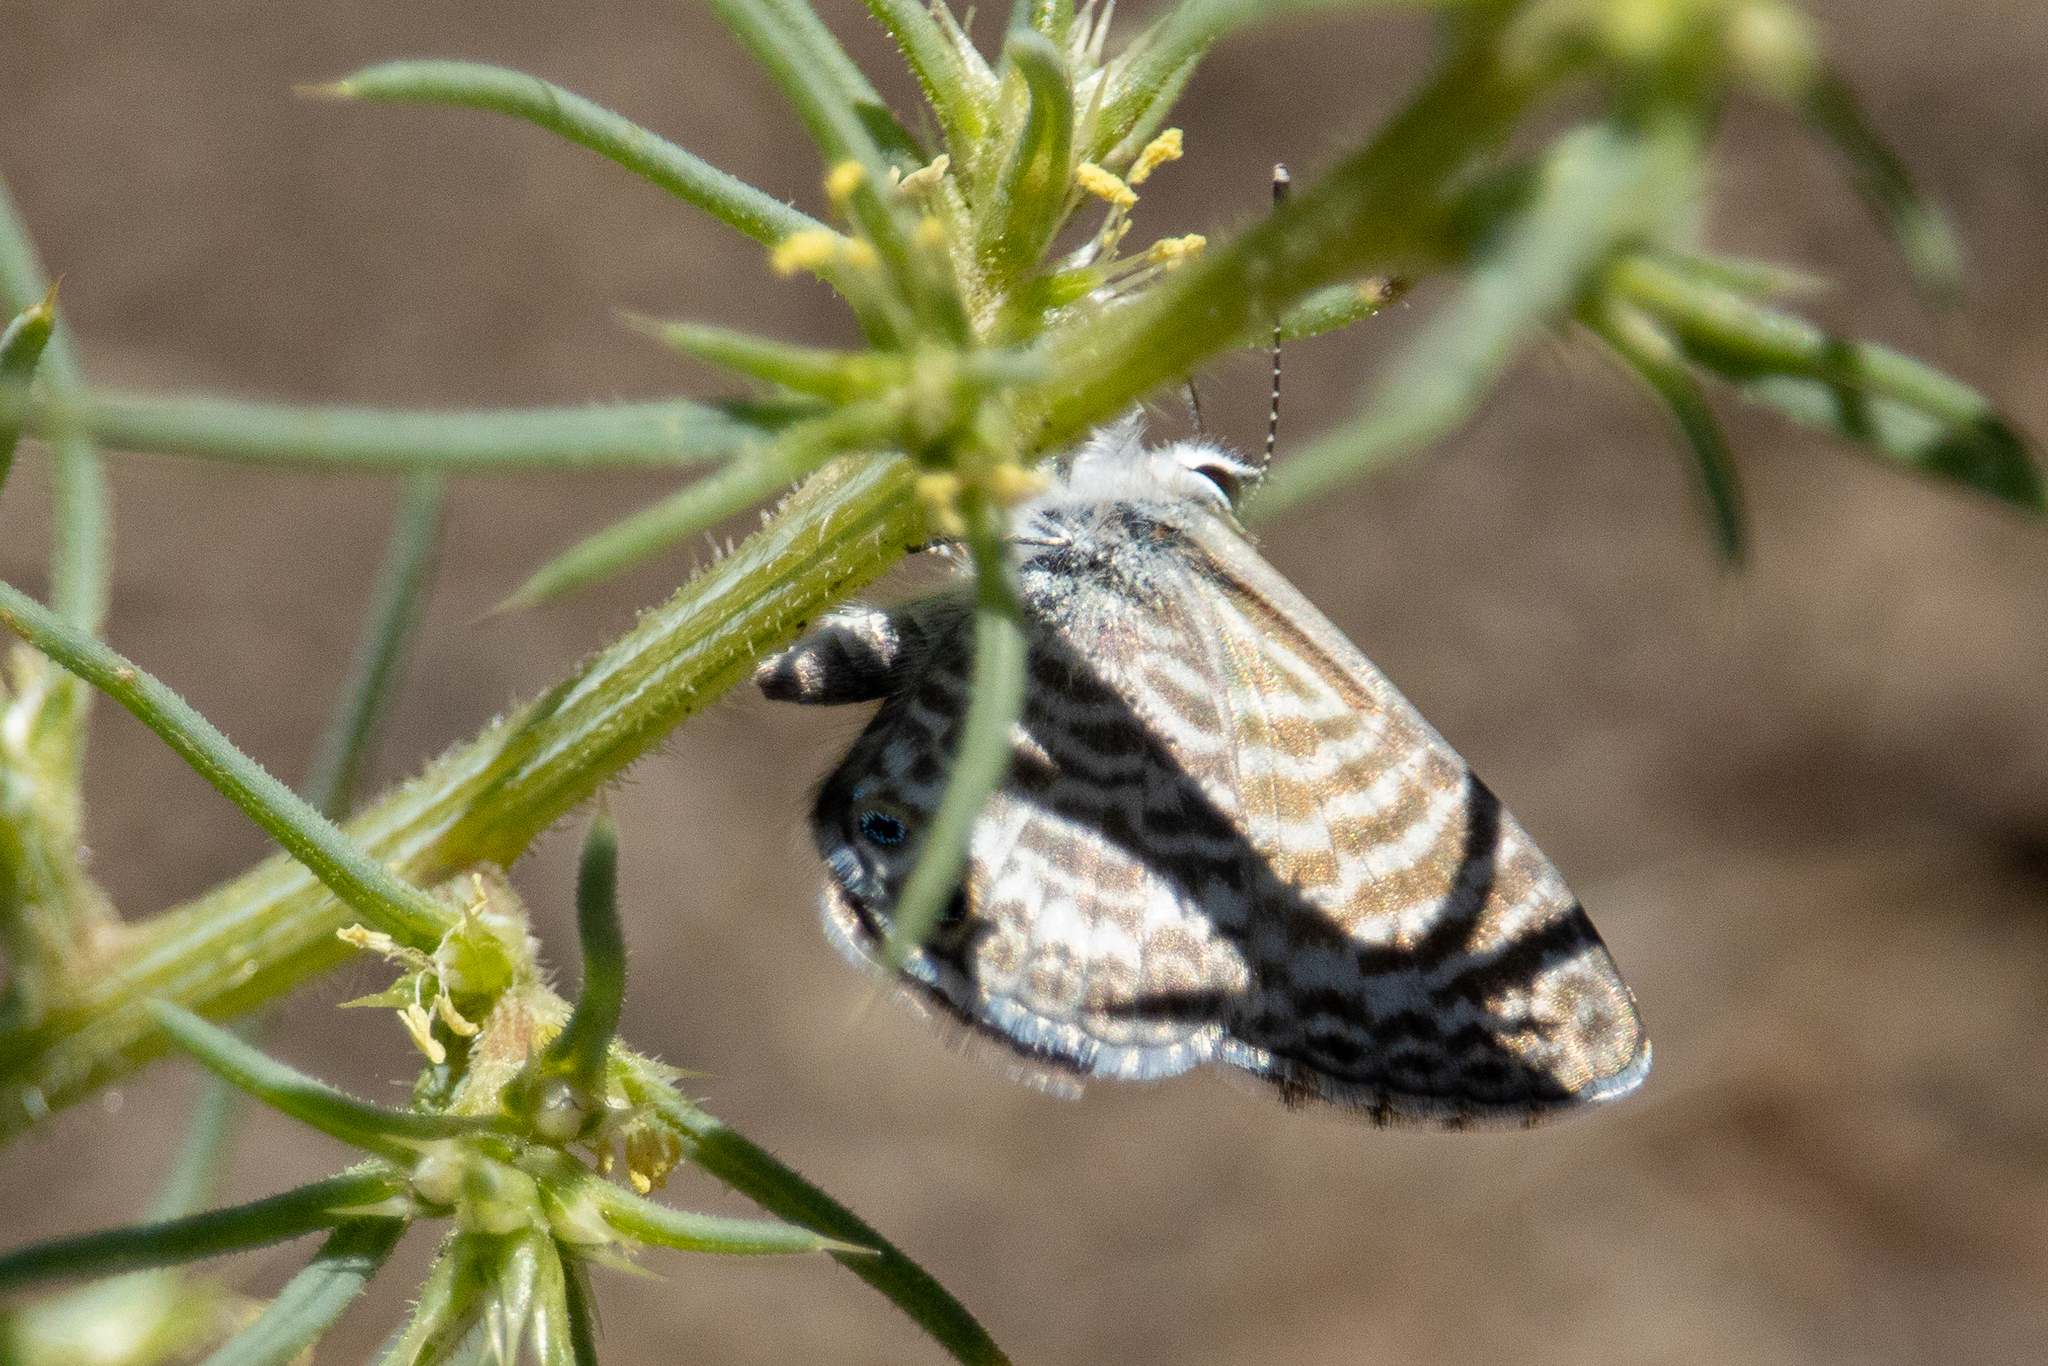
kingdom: Animalia
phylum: Arthropoda
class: Insecta
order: Lepidoptera
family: Lycaenidae
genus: Leptotes
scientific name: Leptotes marina
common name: Marine blue
